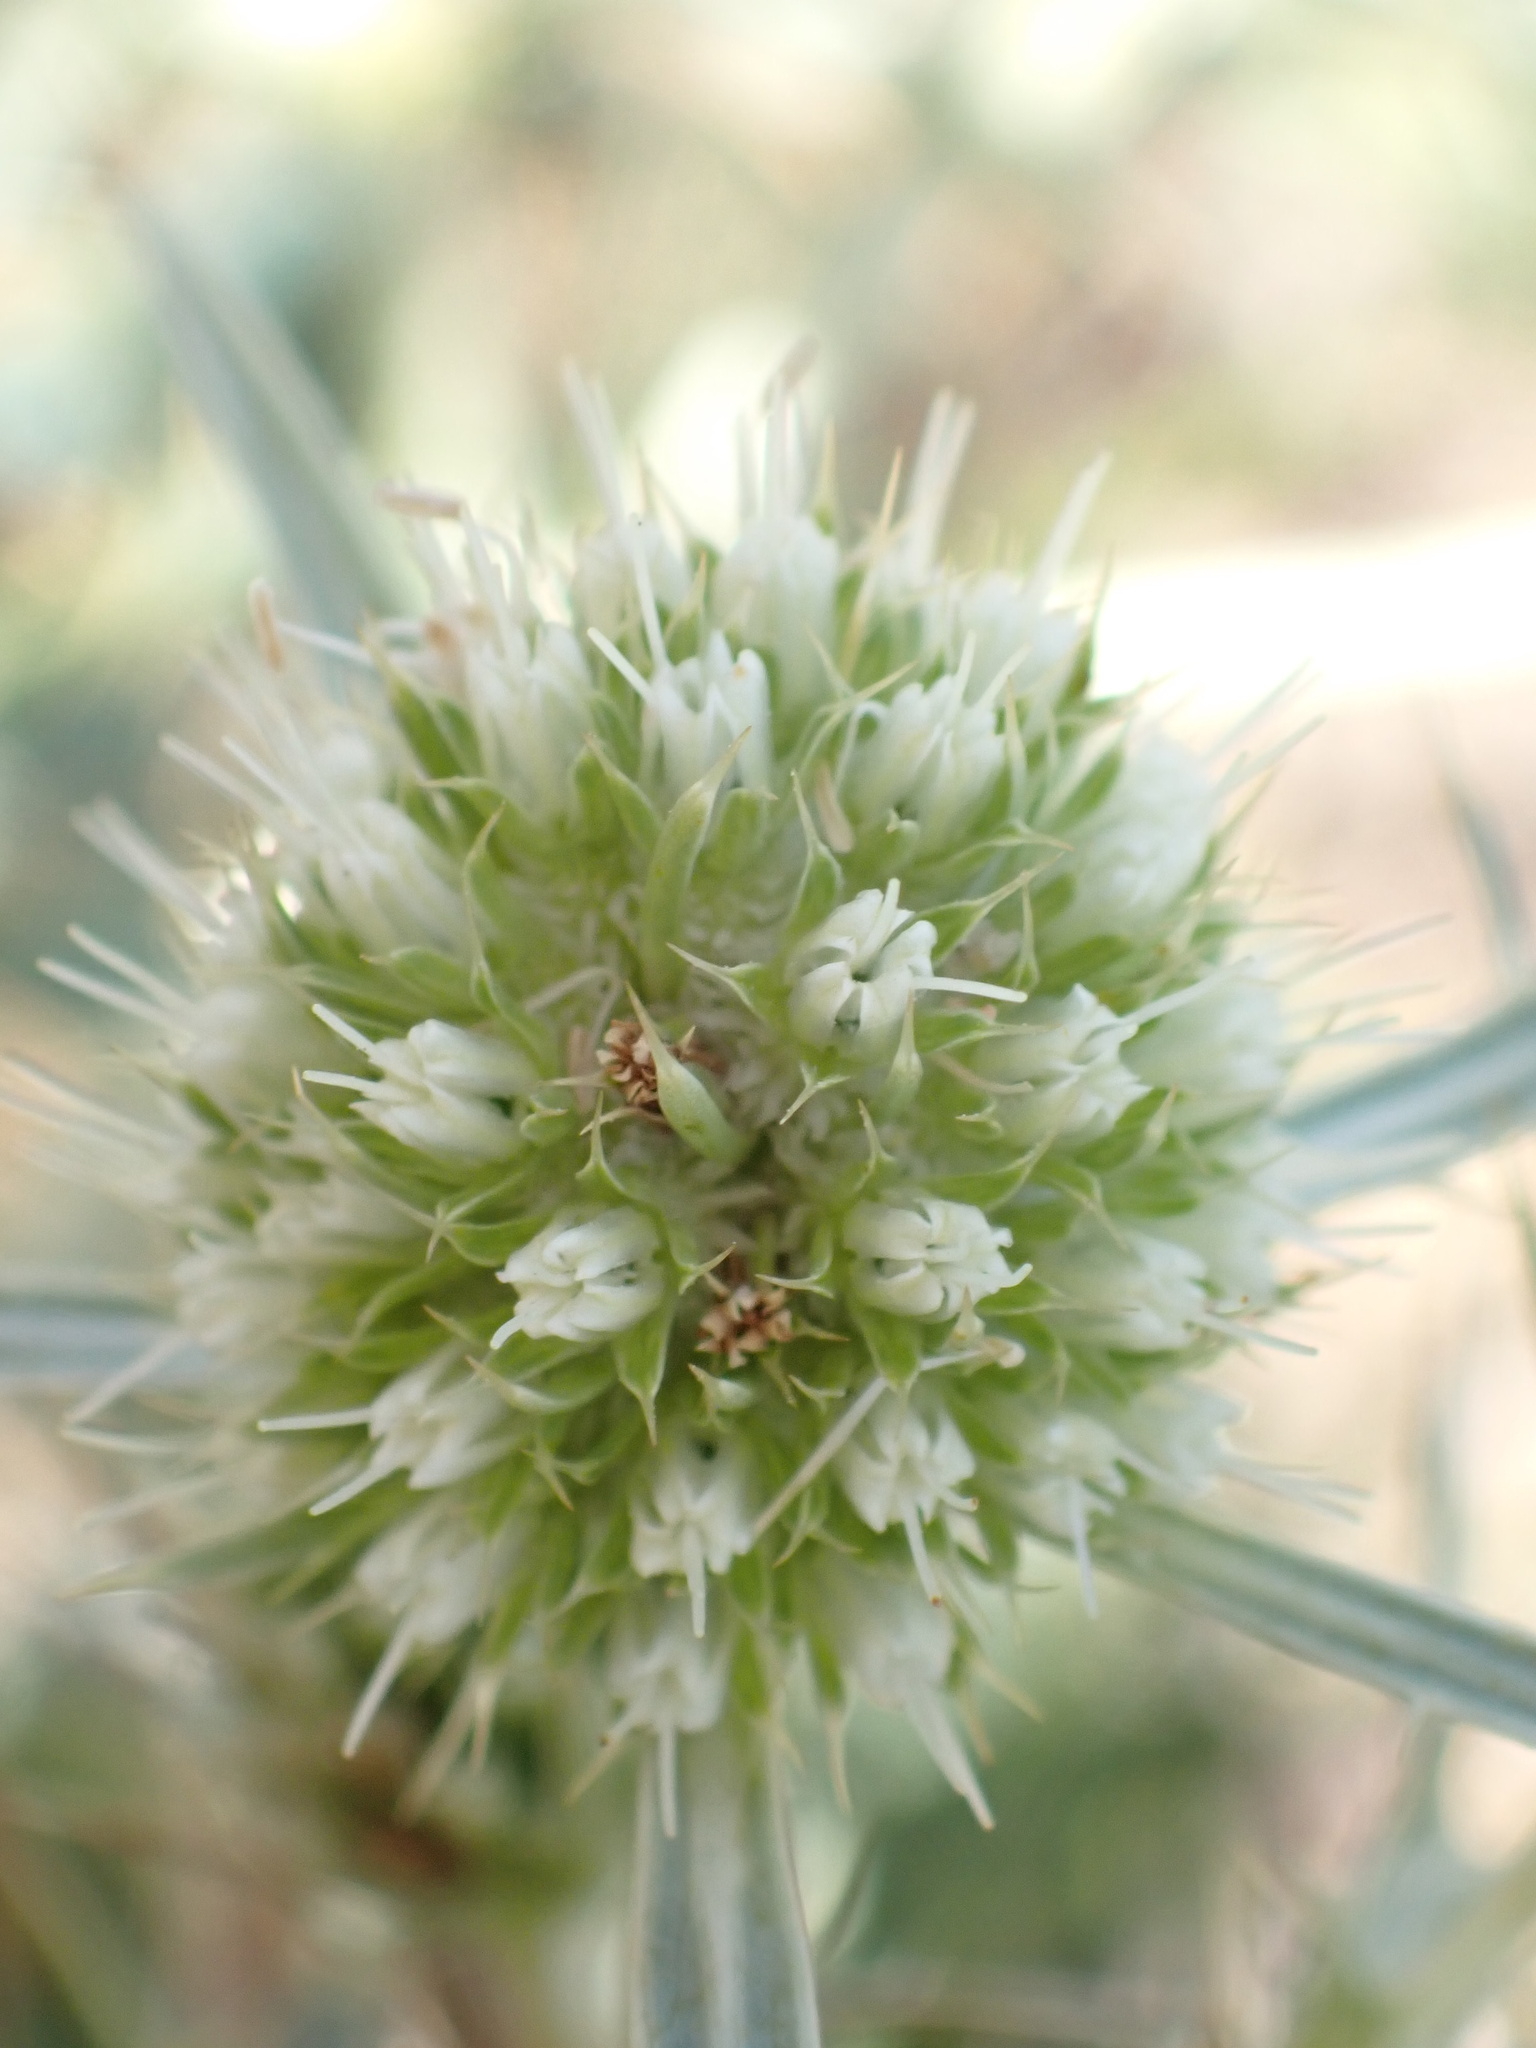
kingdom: Plantae
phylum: Tracheophyta
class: Magnoliopsida
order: Apiales
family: Apiaceae
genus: Eryngium
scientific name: Eryngium campestre
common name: Field eryngo
